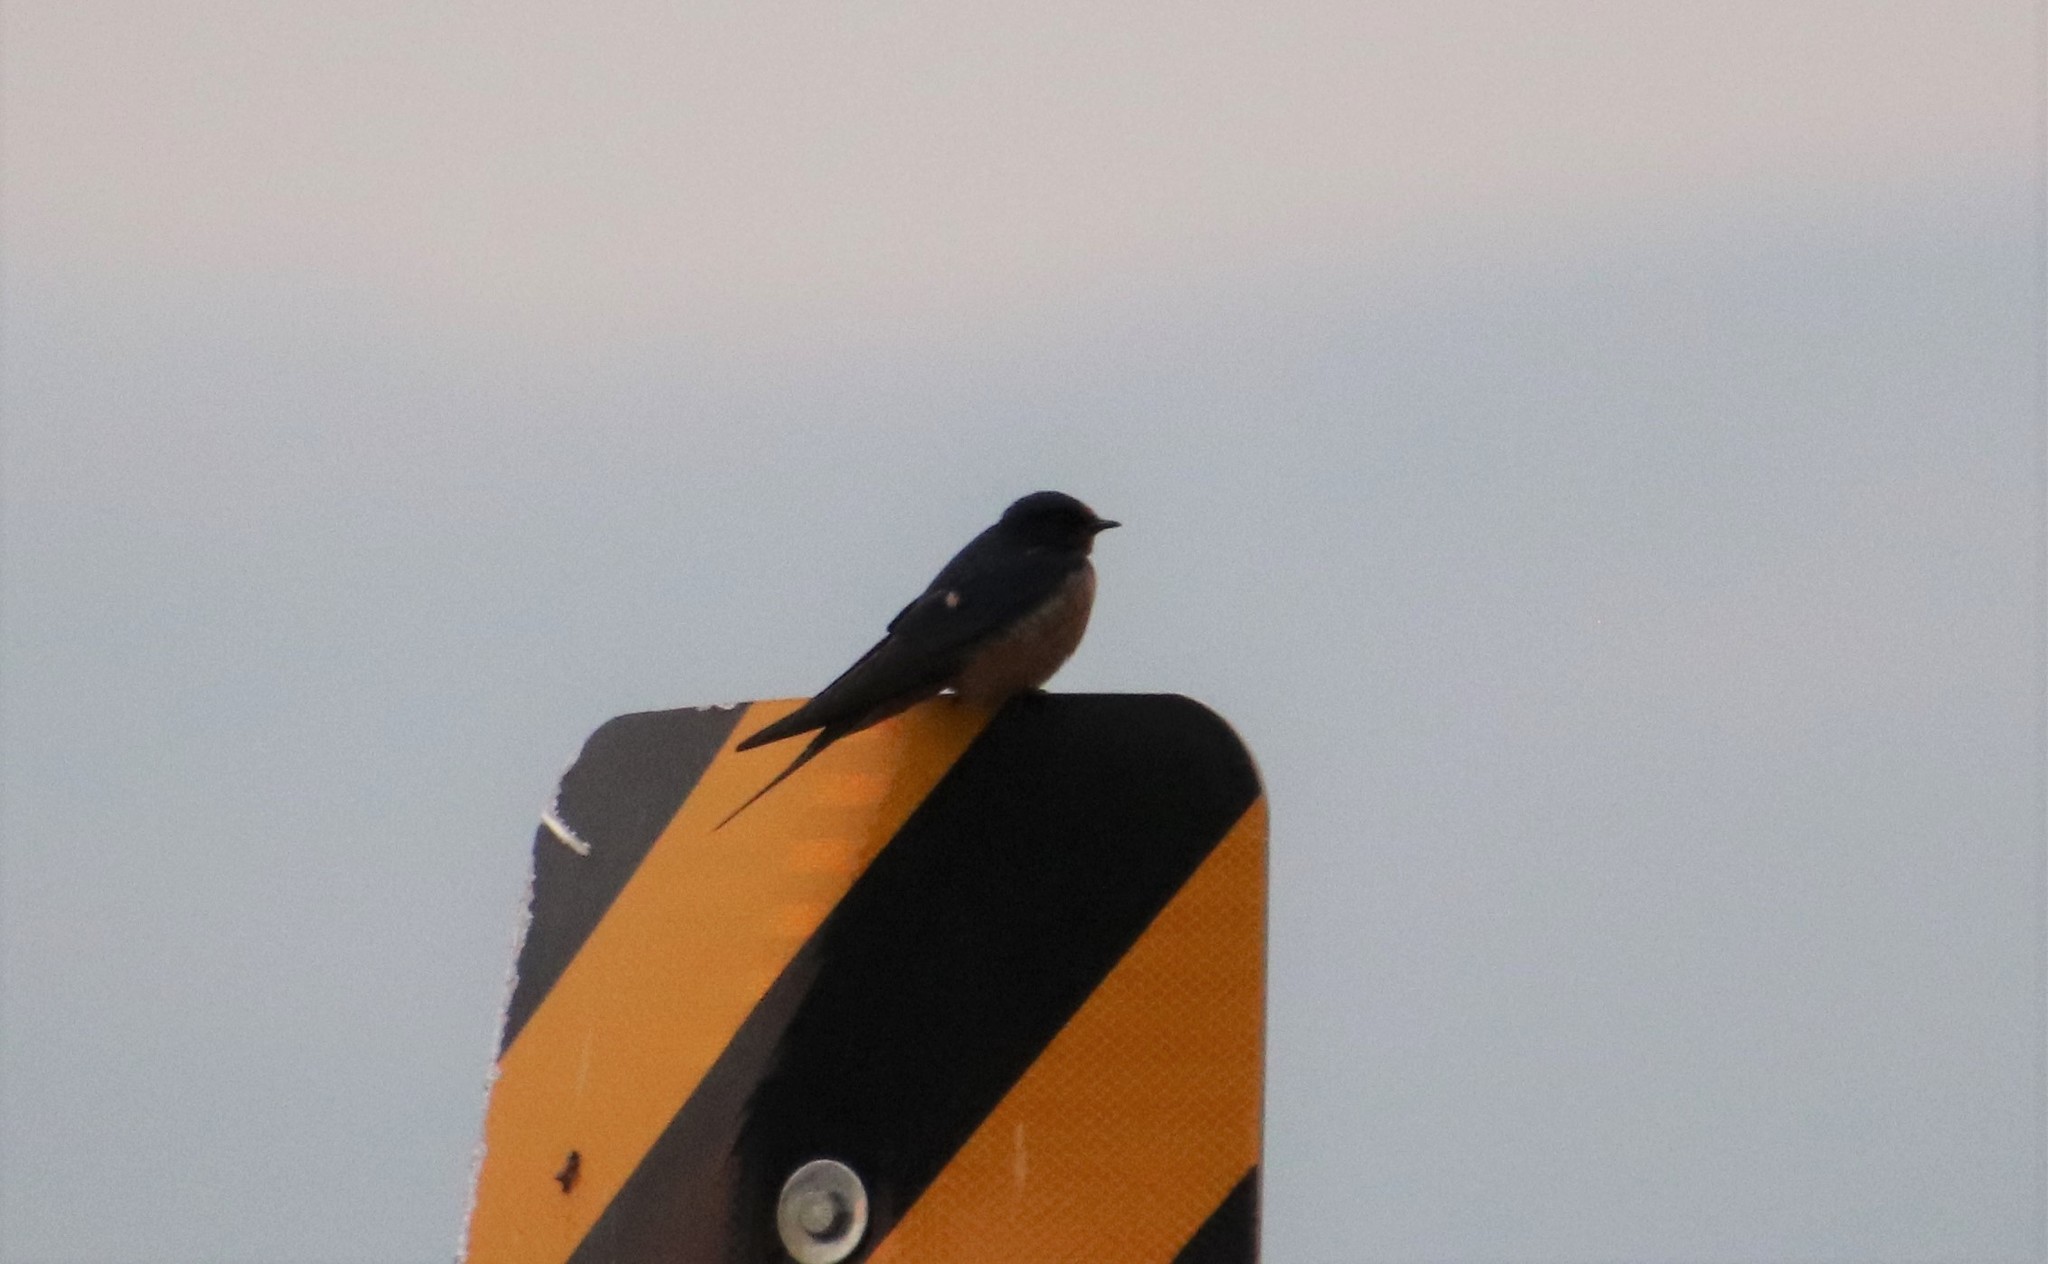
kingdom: Animalia
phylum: Chordata
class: Aves
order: Passeriformes
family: Hirundinidae
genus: Hirundo
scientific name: Hirundo rustica
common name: Barn swallow
